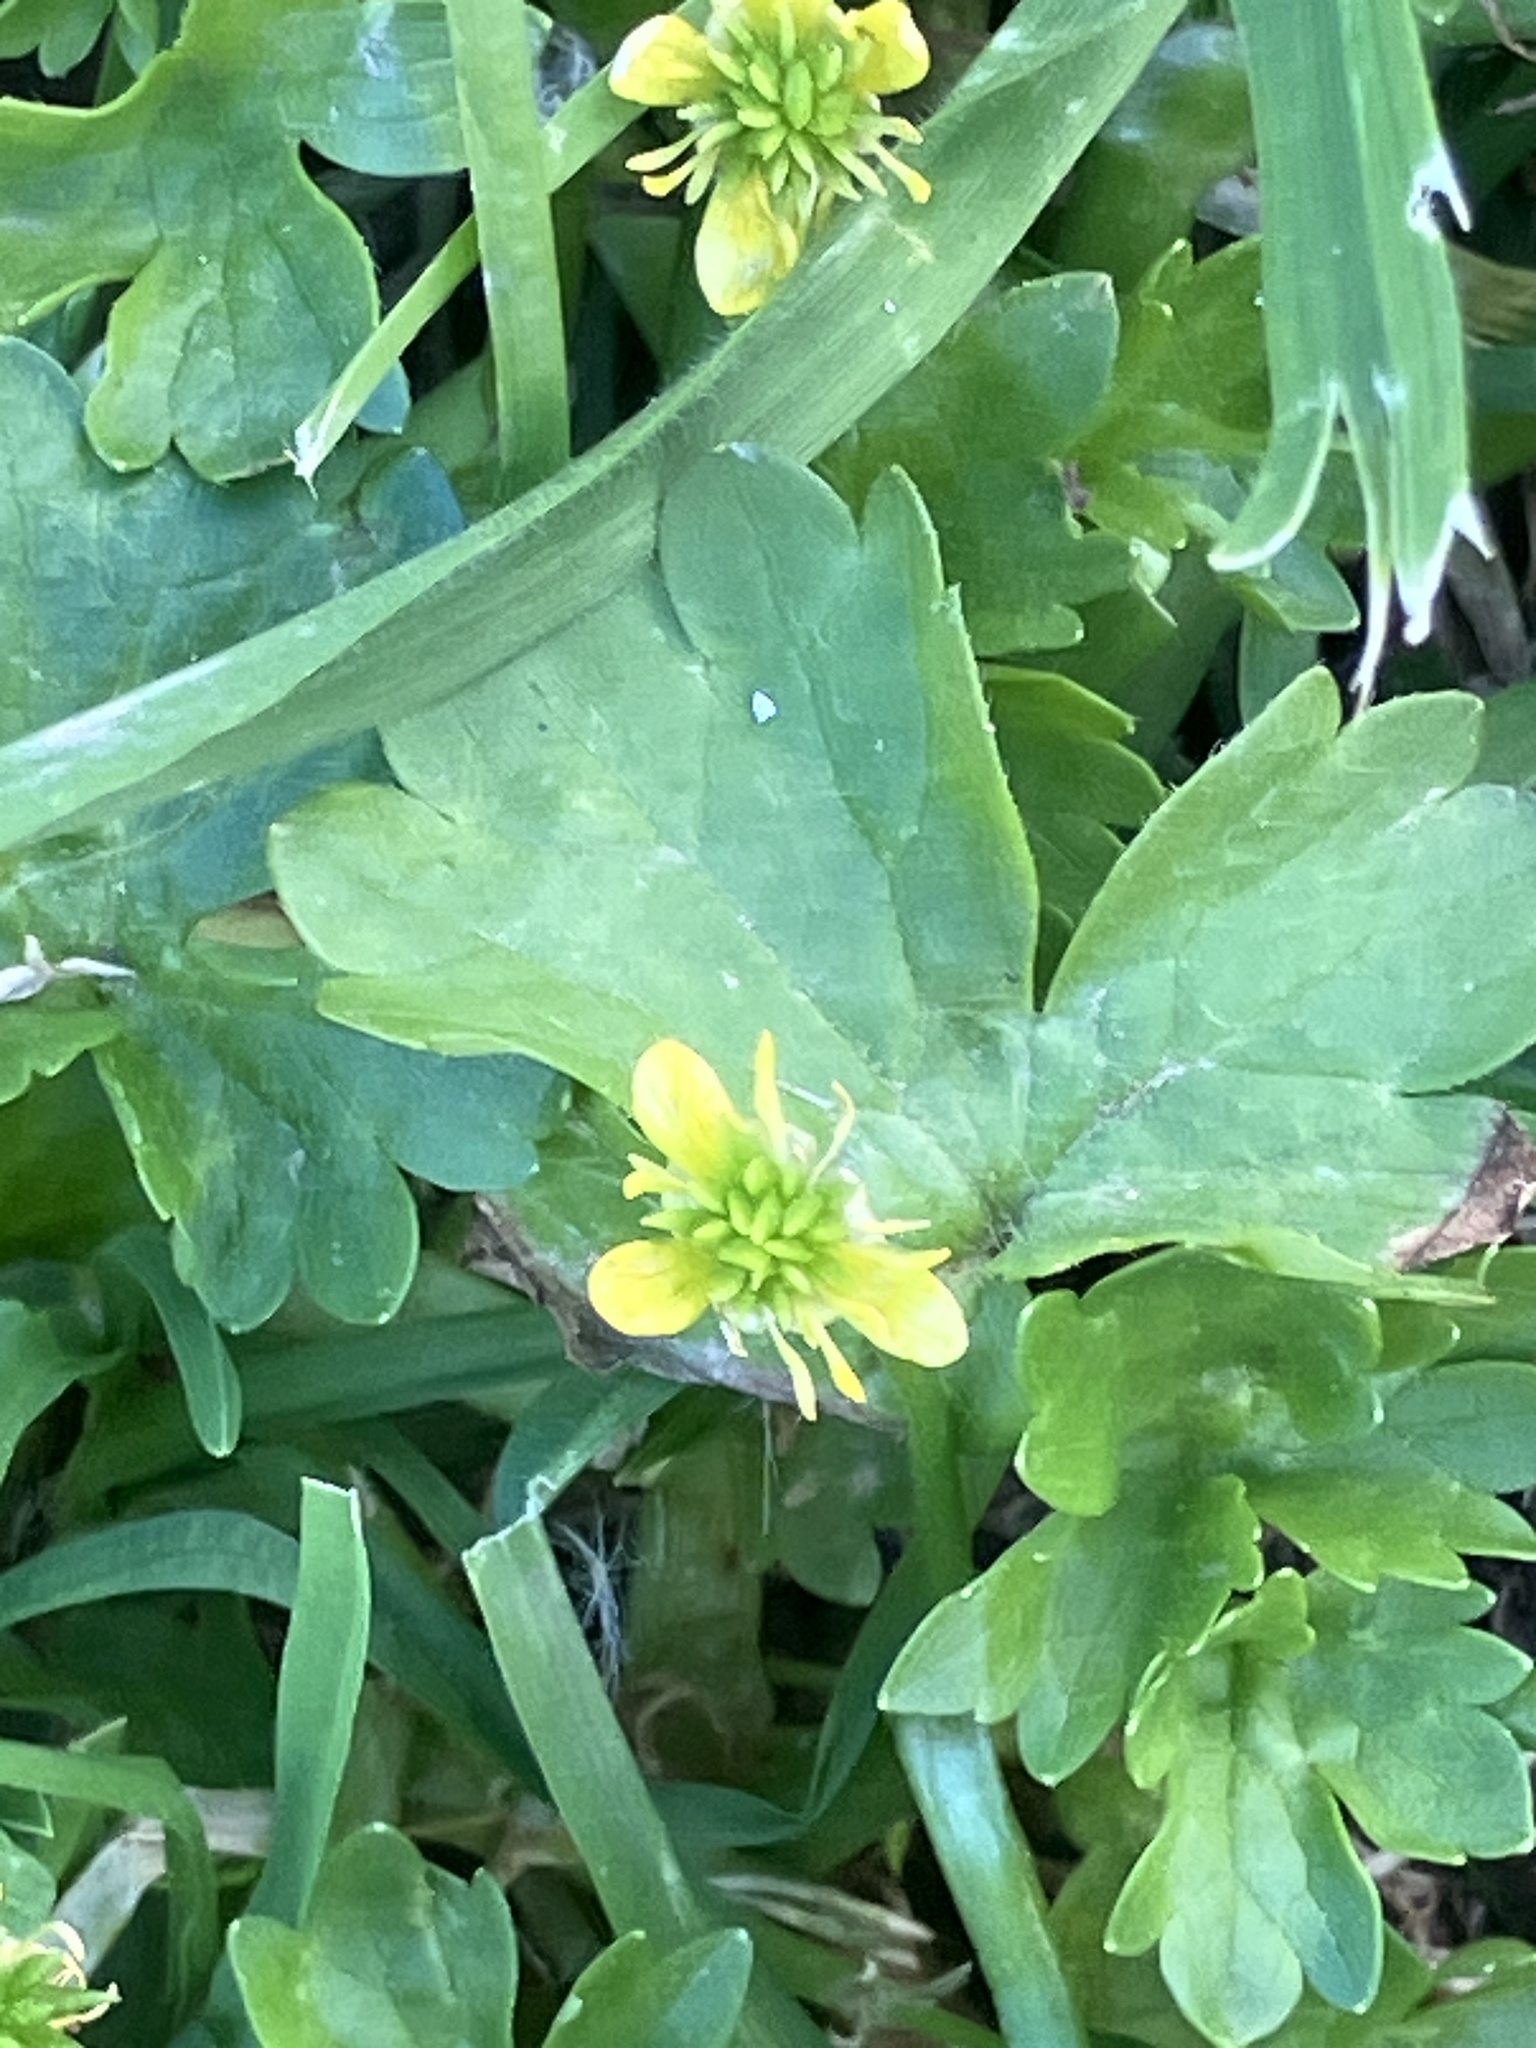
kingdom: Plantae
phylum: Tracheophyta
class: Magnoliopsida
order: Ranunculales
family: Ranunculaceae
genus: Ranunculus
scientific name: Ranunculus muricatus
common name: Rough-fruited buttercup
